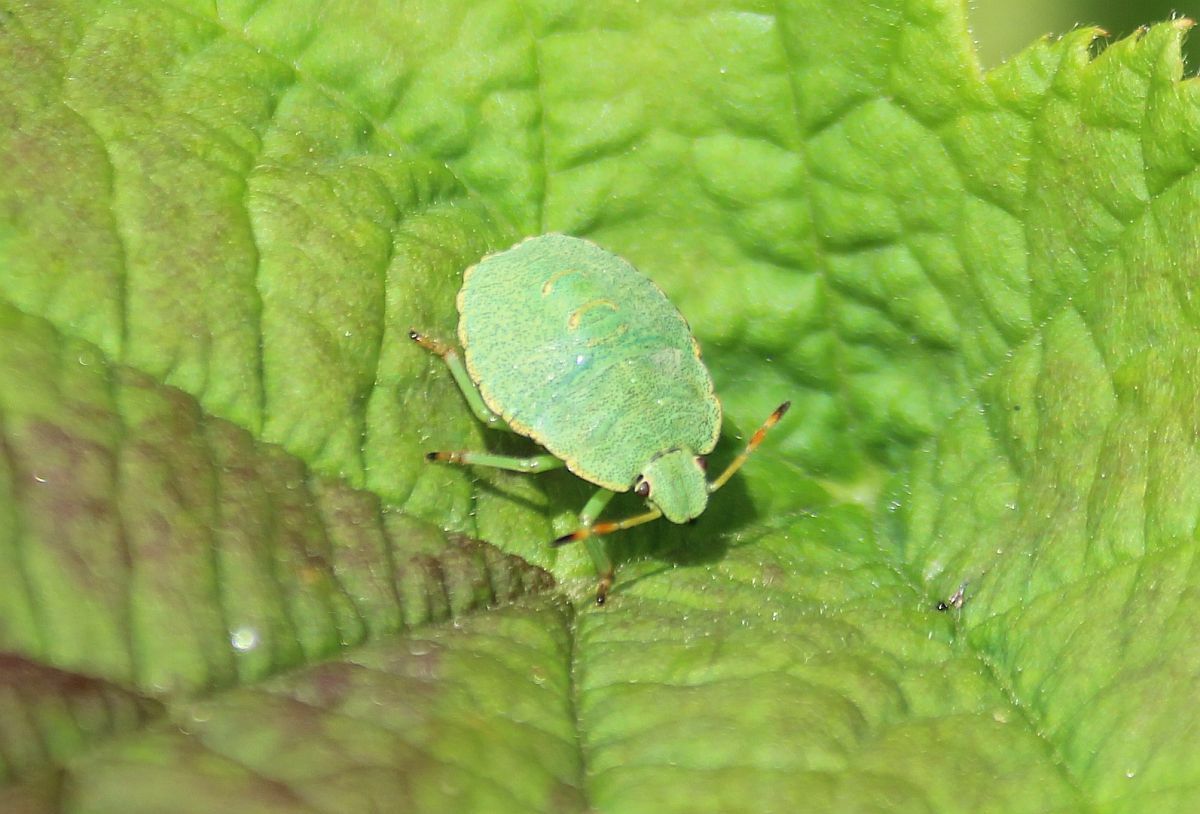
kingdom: Animalia
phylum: Arthropoda
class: Insecta
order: Hemiptera
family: Pentatomidae
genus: Palomena
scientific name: Palomena prasina
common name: Green shieldbug
